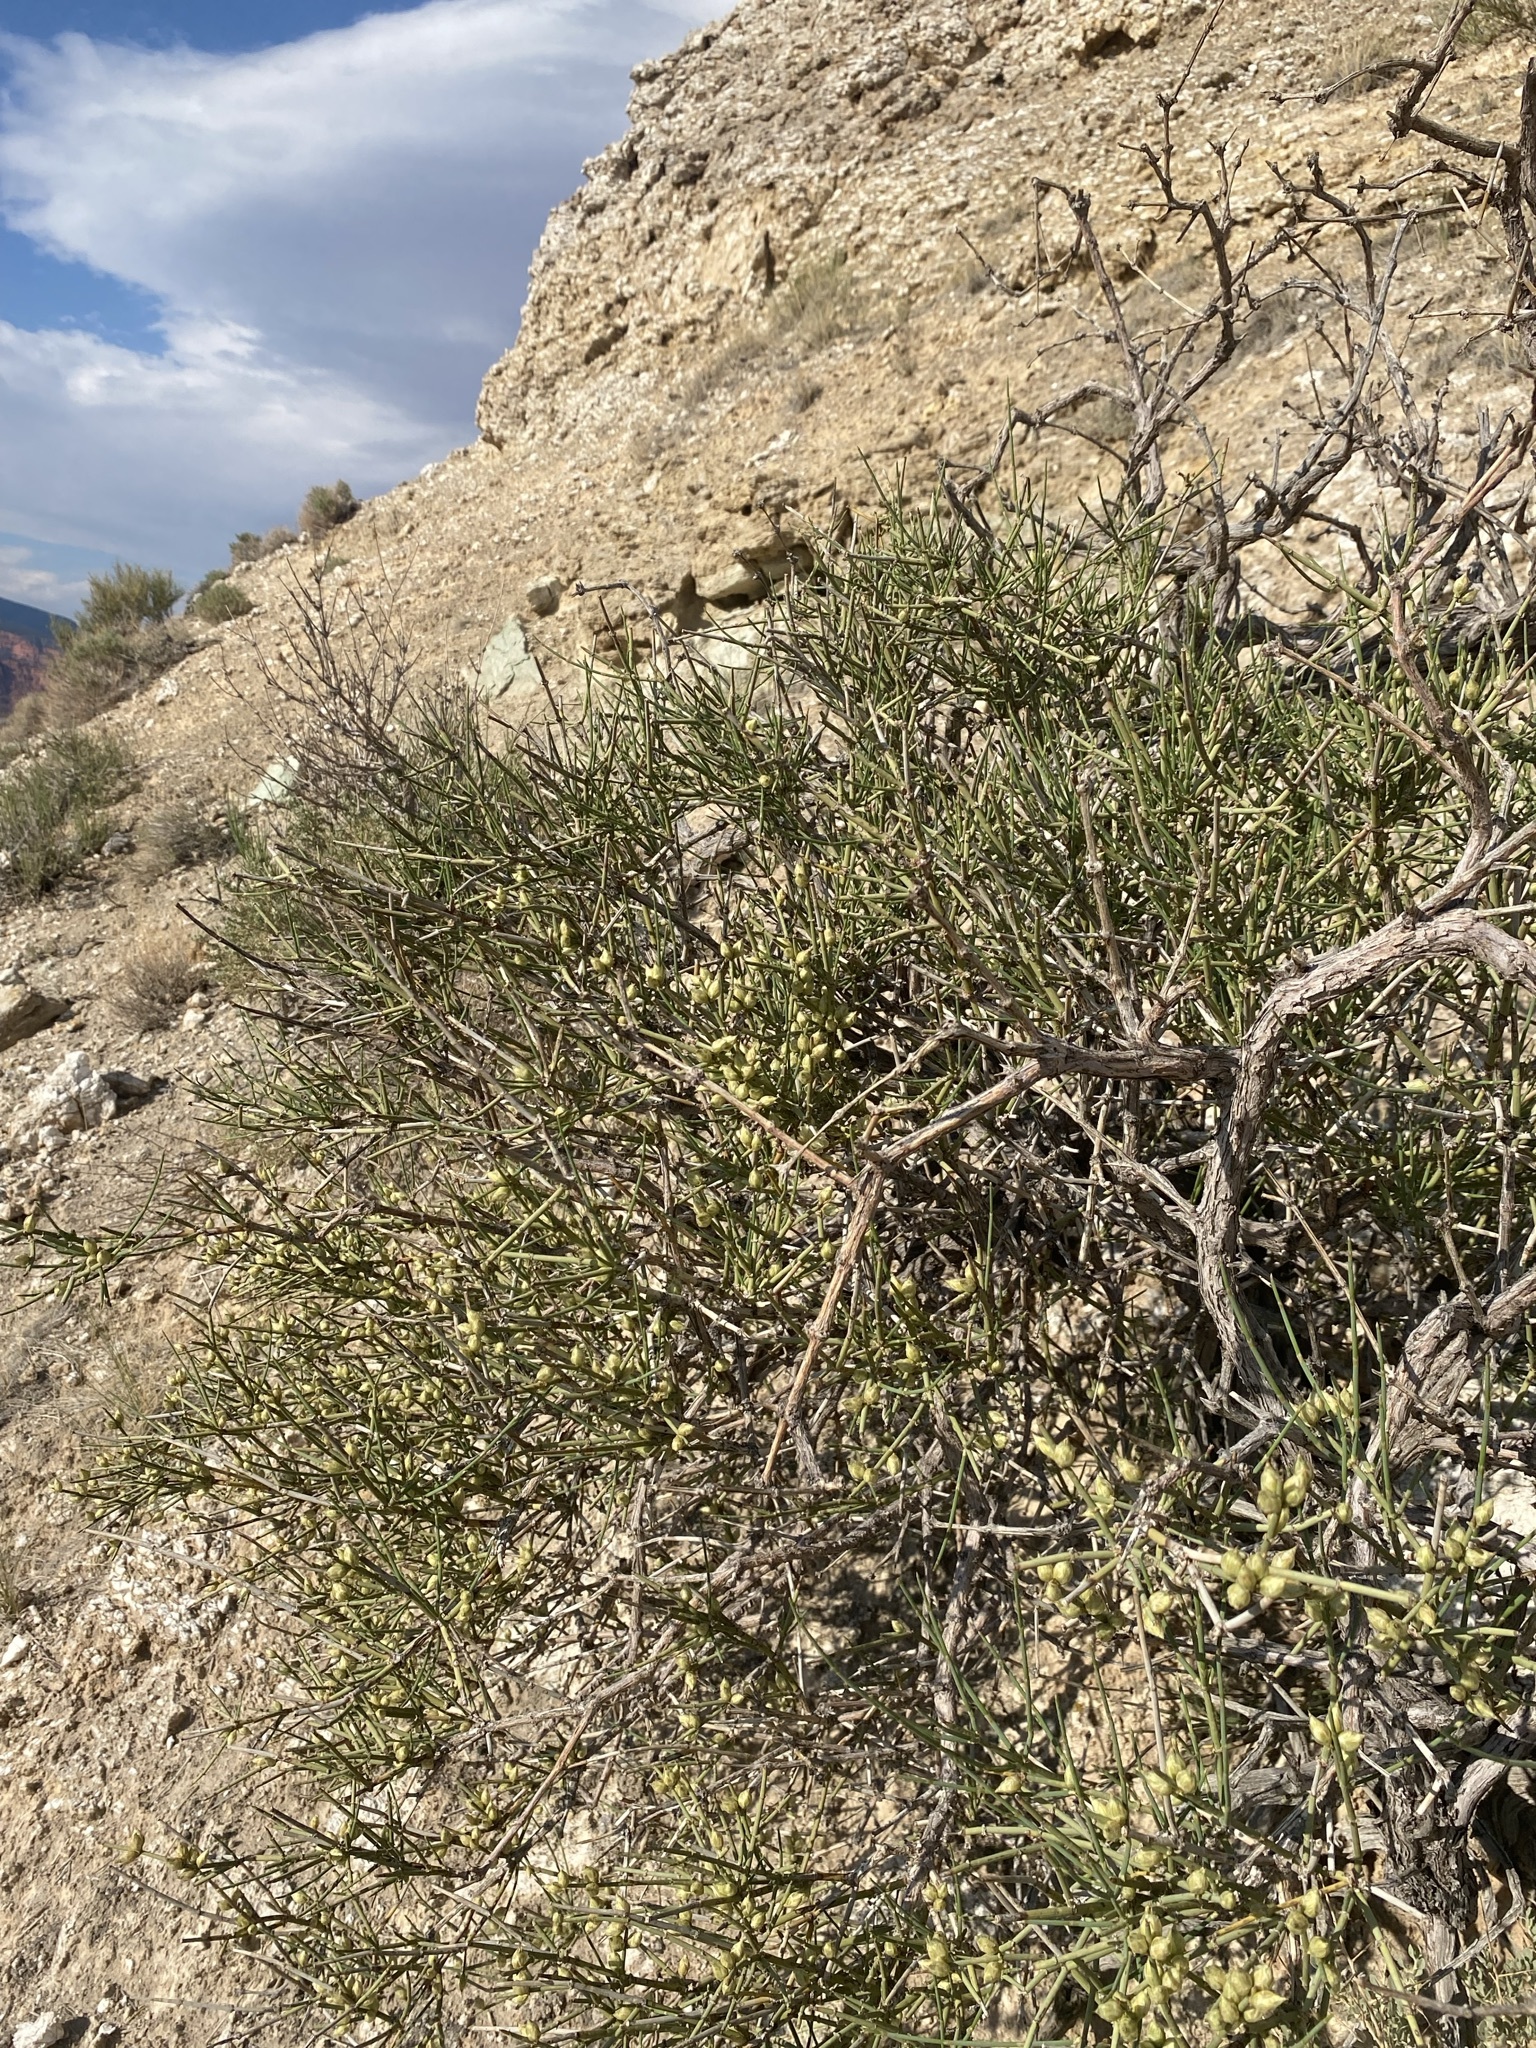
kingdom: Plantae
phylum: Tracheophyta
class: Gnetopsida
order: Ephedrales
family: Ephedraceae
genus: Ephedra
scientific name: Ephedra torreyana
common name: Torrey ephedra
